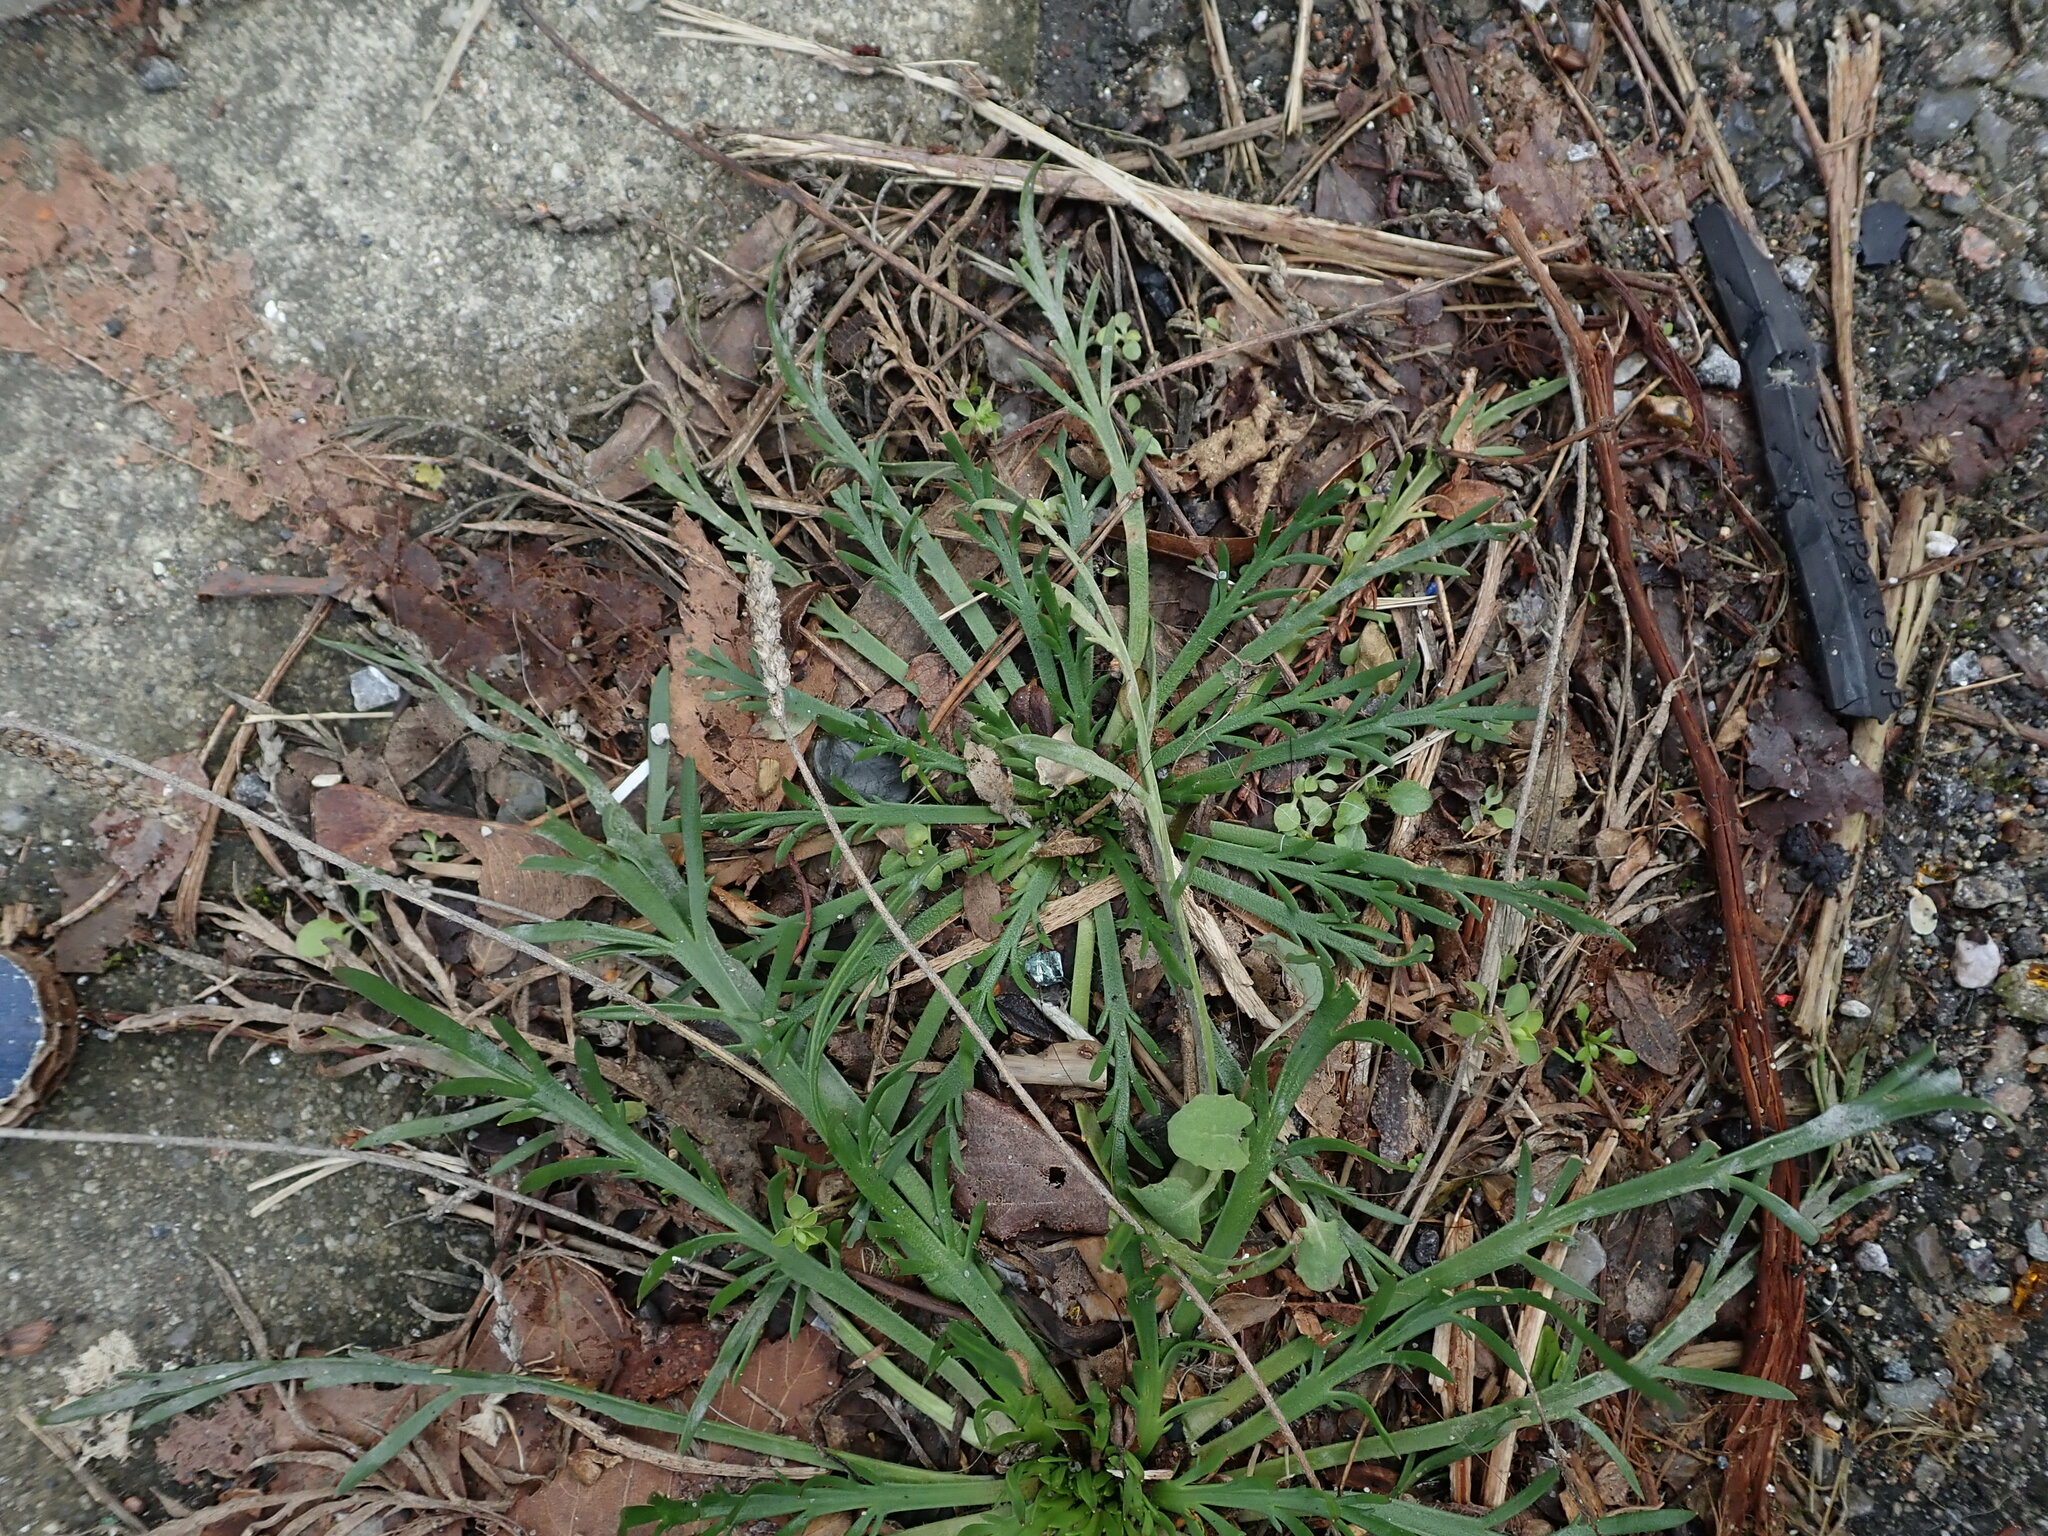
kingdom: Plantae
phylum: Tracheophyta
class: Magnoliopsida
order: Lamiales
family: Plantaginaceae
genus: Plantago
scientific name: Plantago coronopus
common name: Buck's-horn plantain
